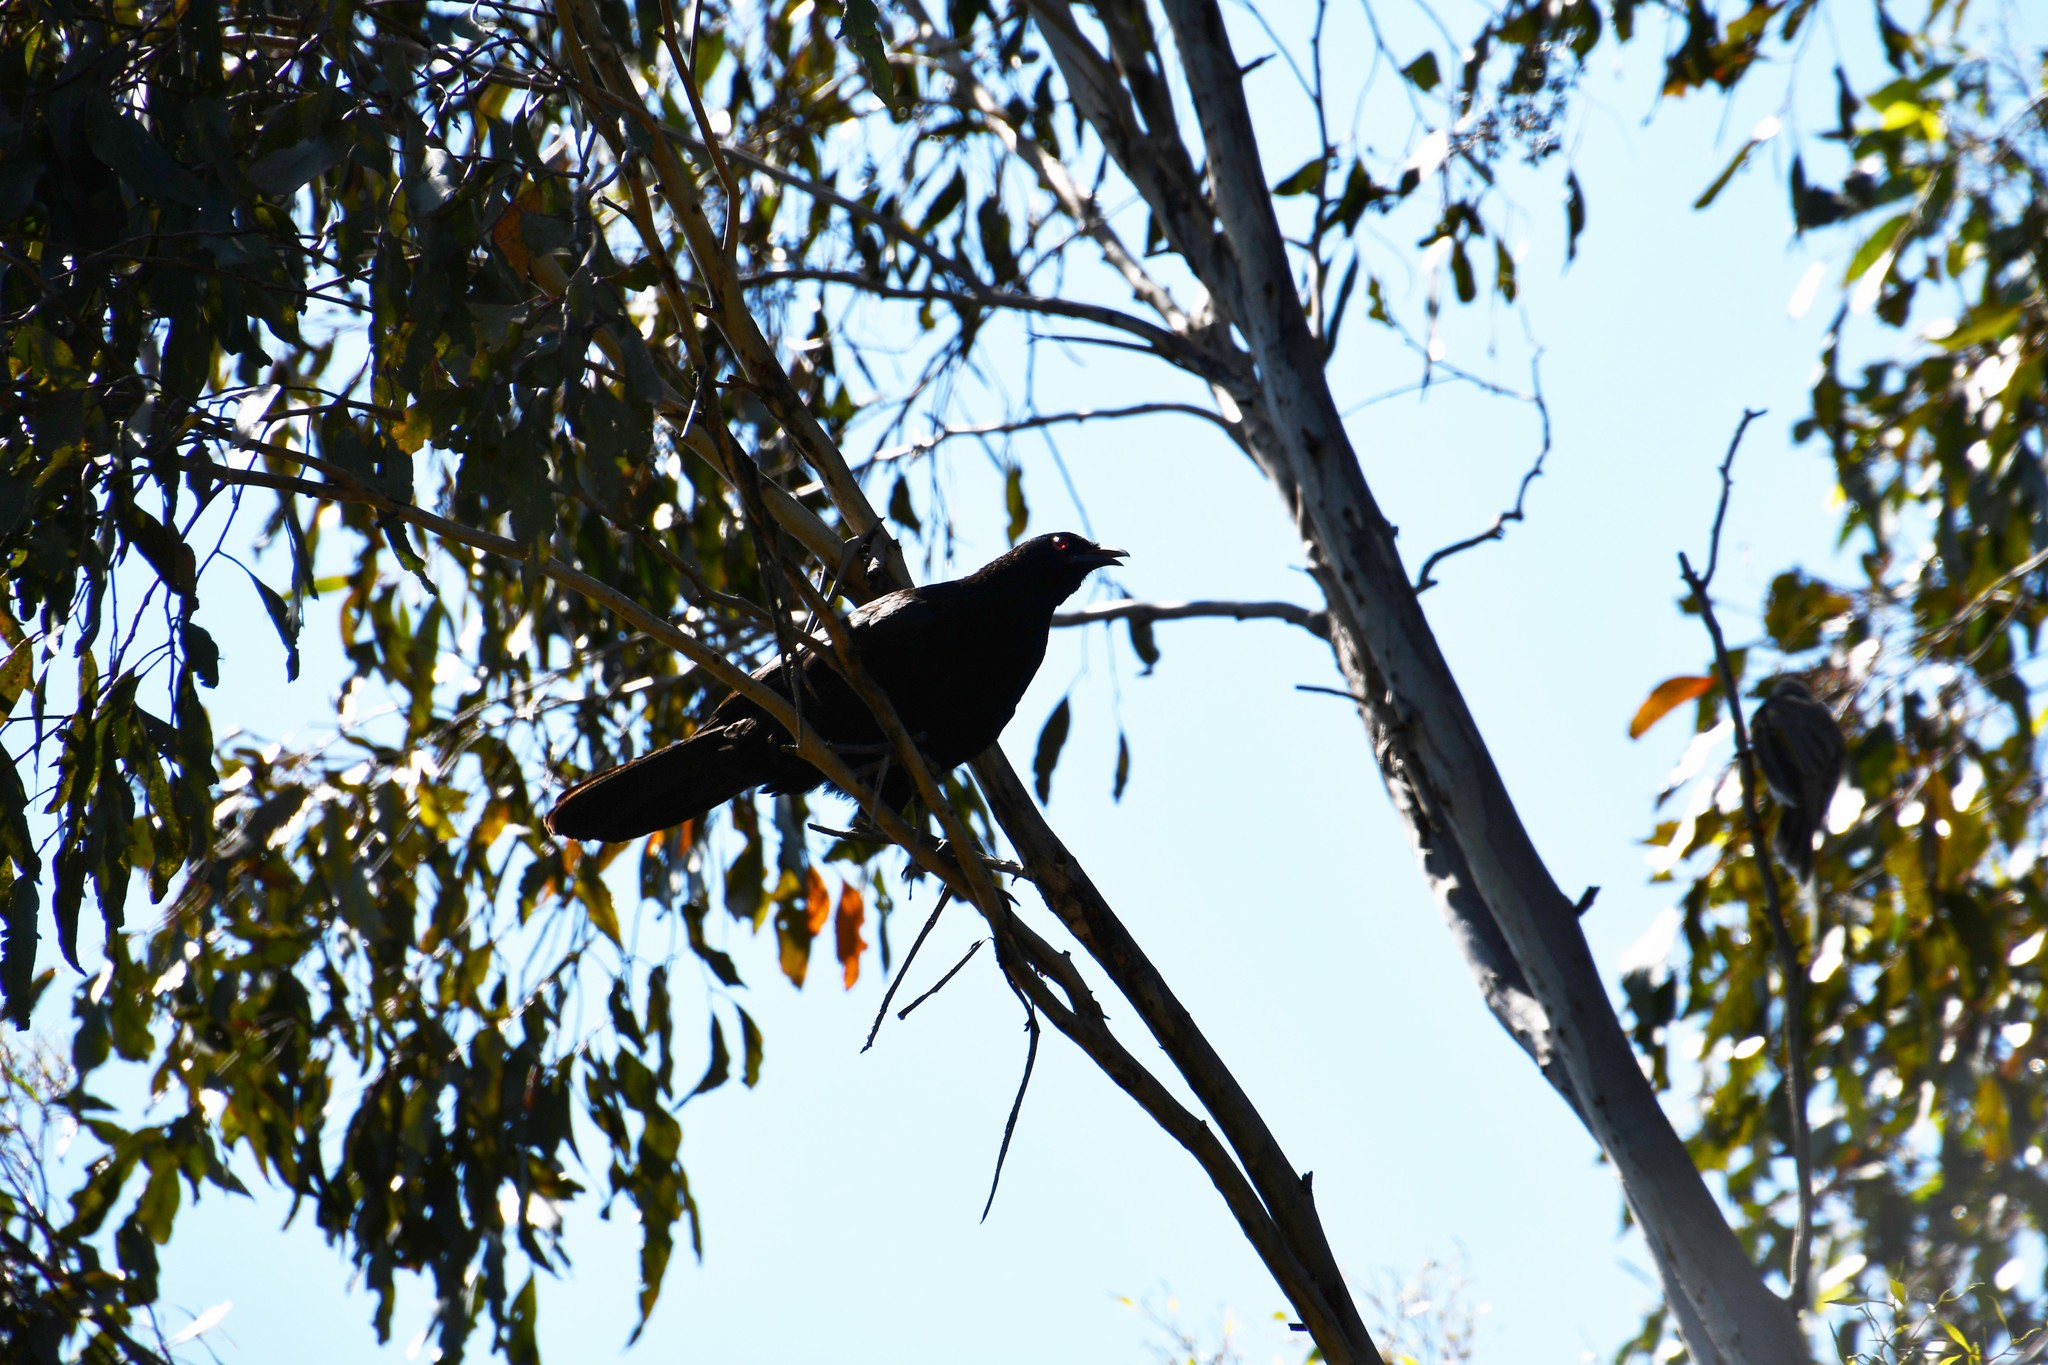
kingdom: Animalia
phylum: Chordata
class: Aves
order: Passeriformes
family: Corcoracidae
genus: Corcorax
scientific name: Corcorax melanoramphos
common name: White-winged chough
